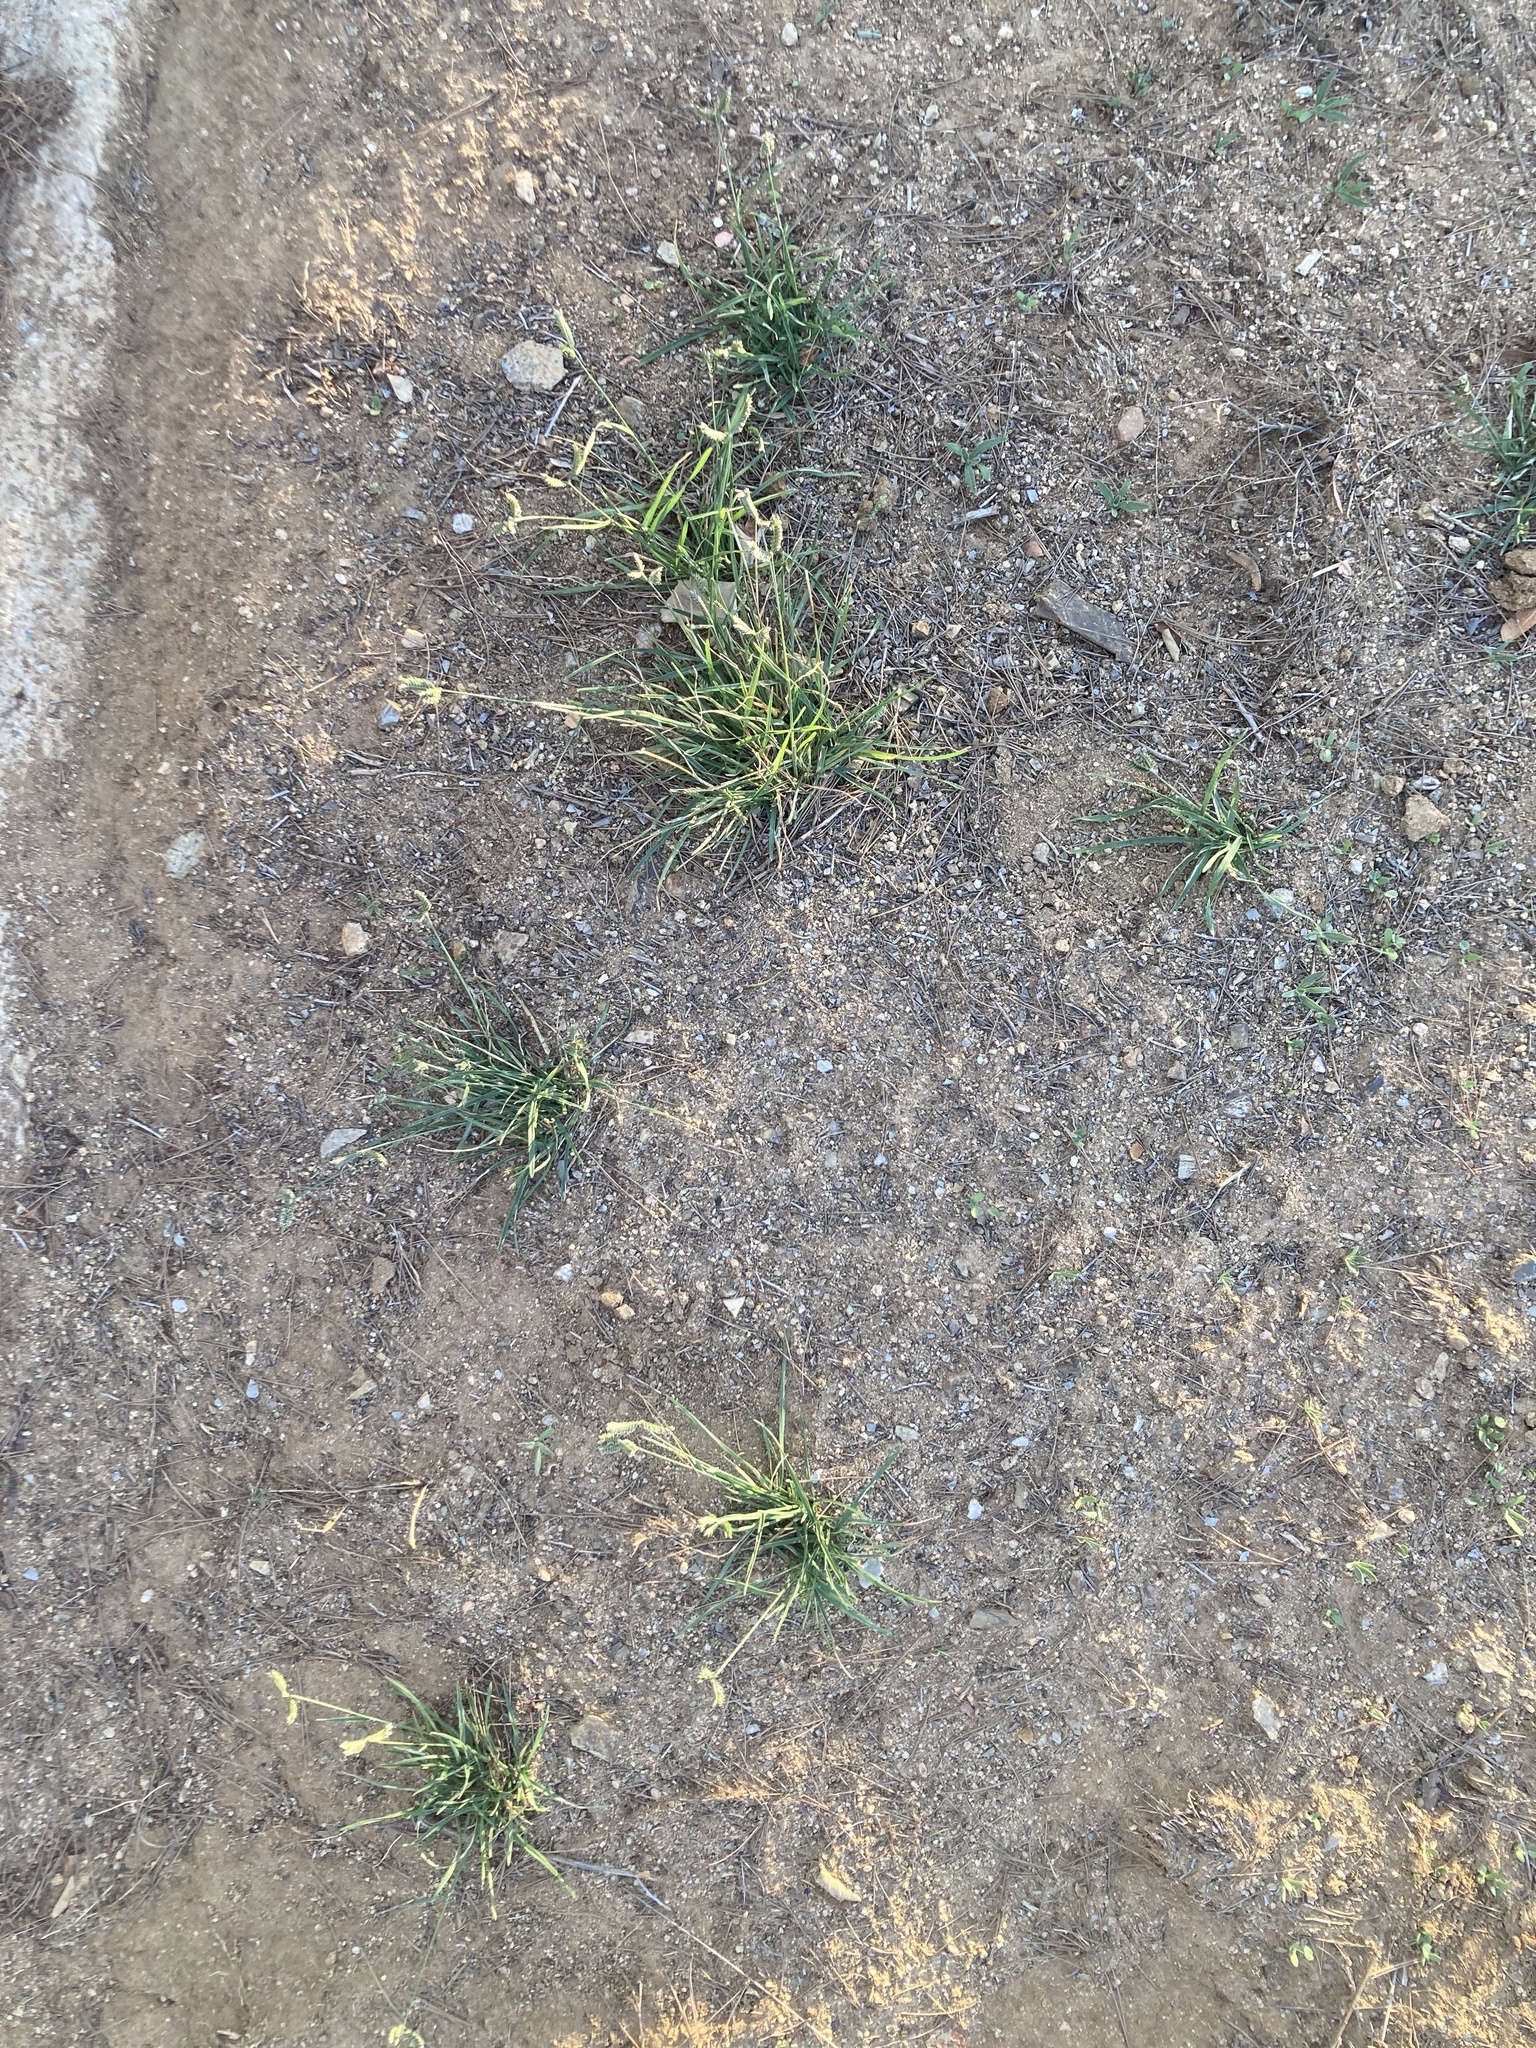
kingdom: Plantae
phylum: Tracheophyta
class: Liliopsida
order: Poales
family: Poaceae
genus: Eleusine
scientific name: Eleusine tristachya
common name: American yard-grass
